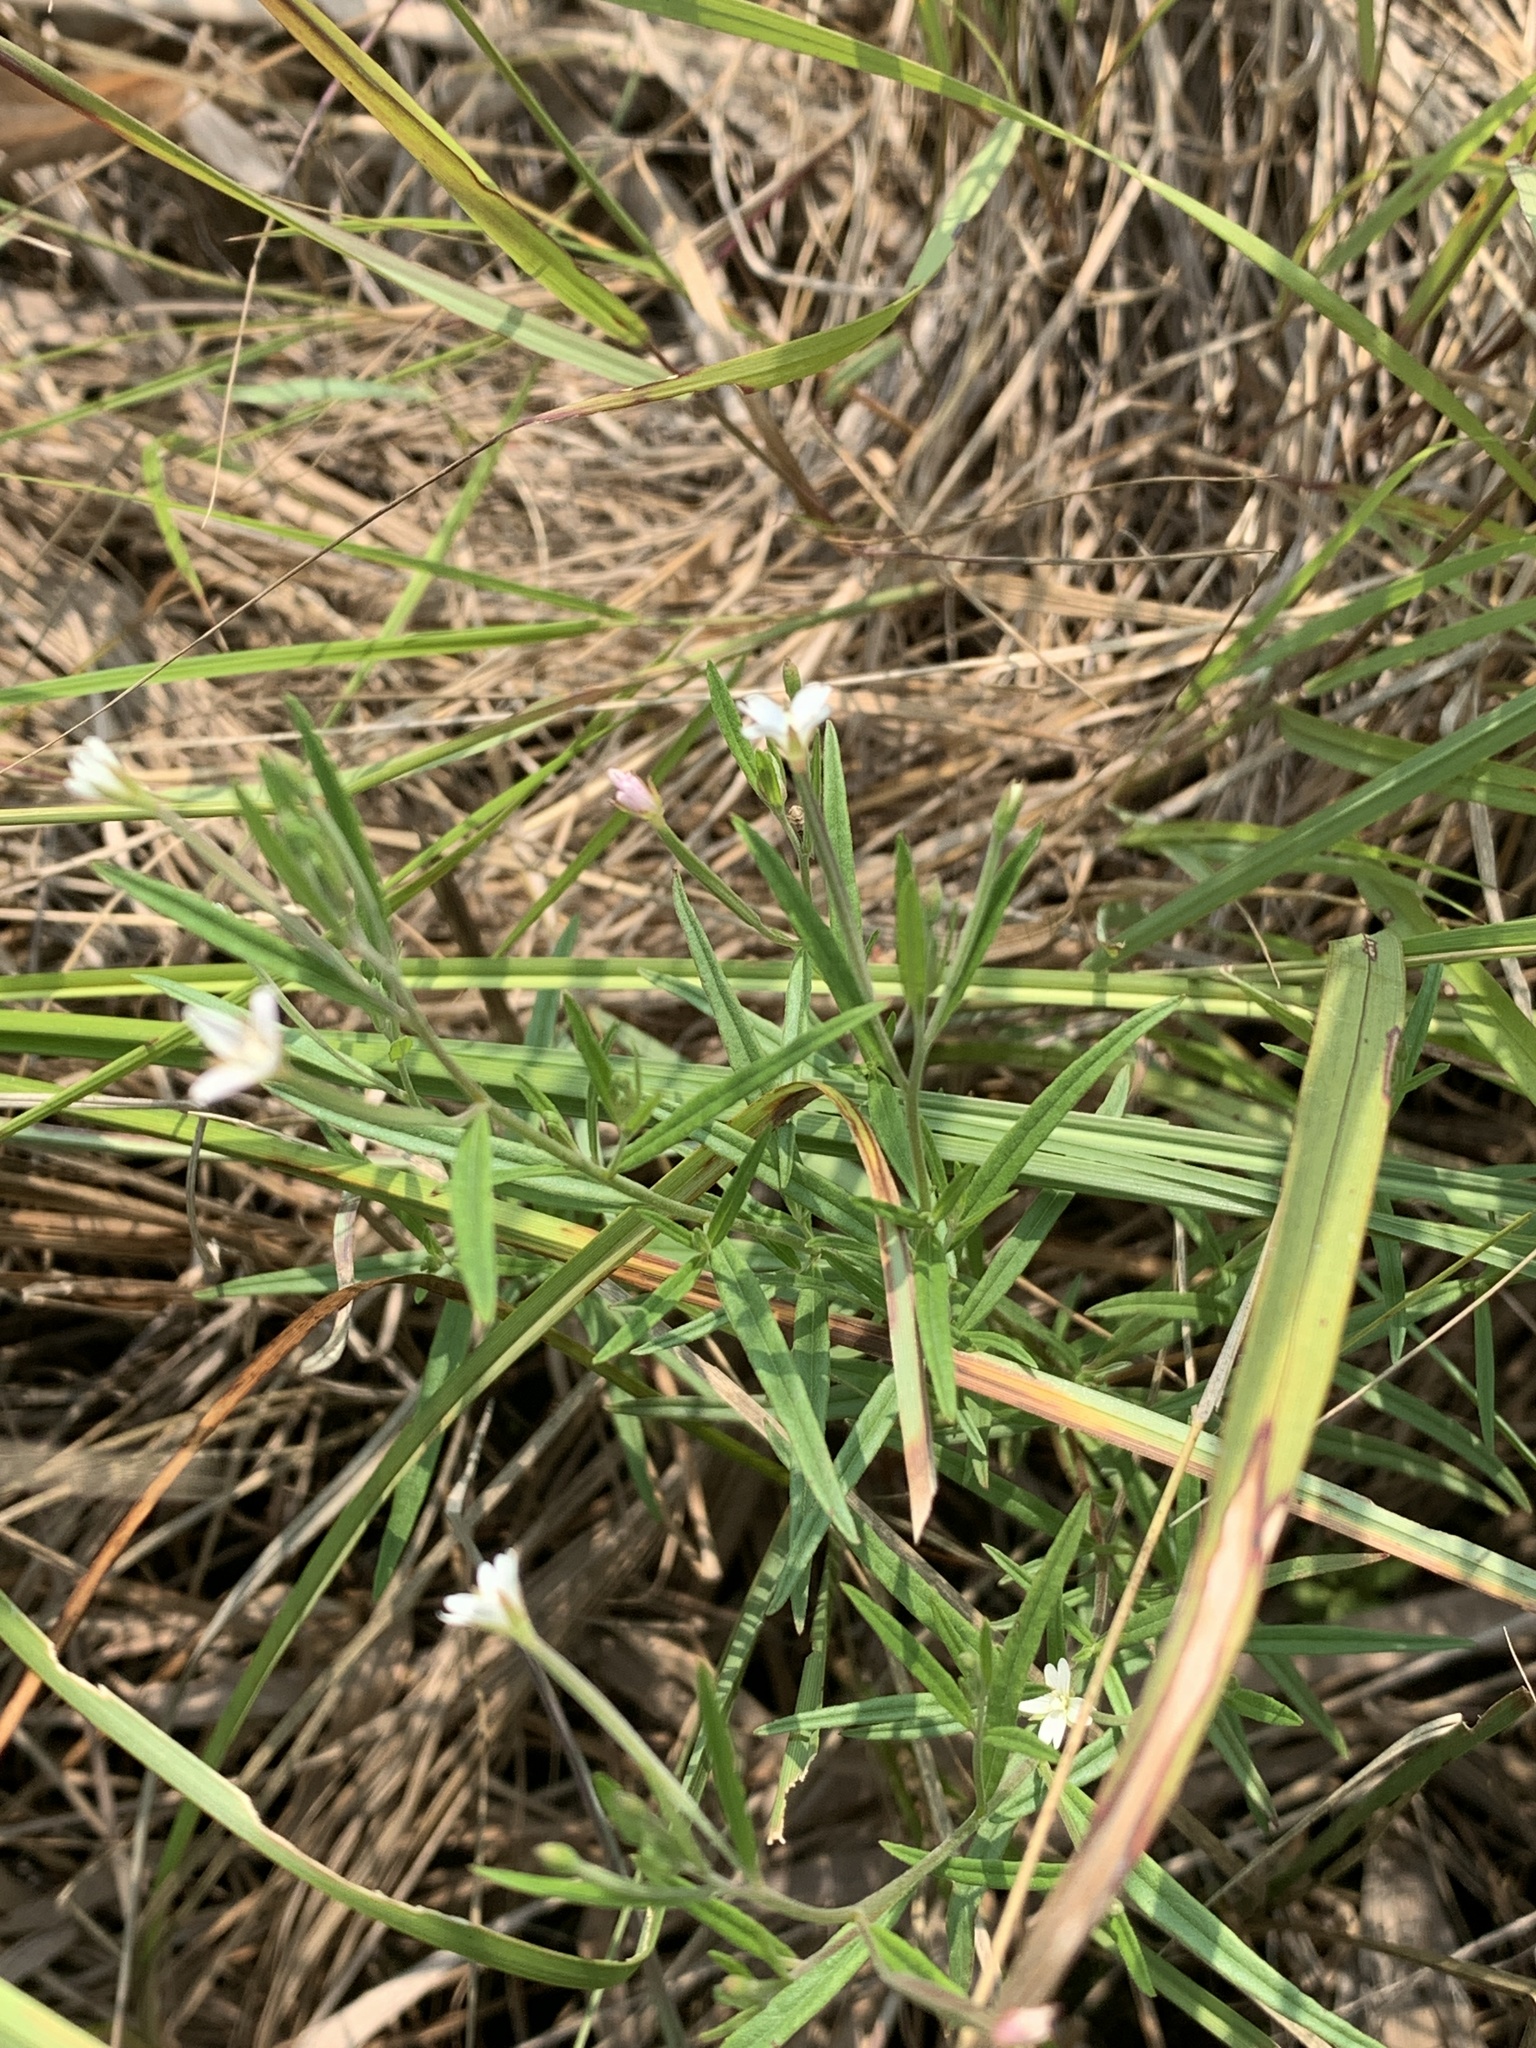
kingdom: Plantae
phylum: Tracheophyta
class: Magnoliopsida
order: Myrtales
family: Onagraceae
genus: Epilobium
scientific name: Epilobium leptophyllum
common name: Bog willowherb
